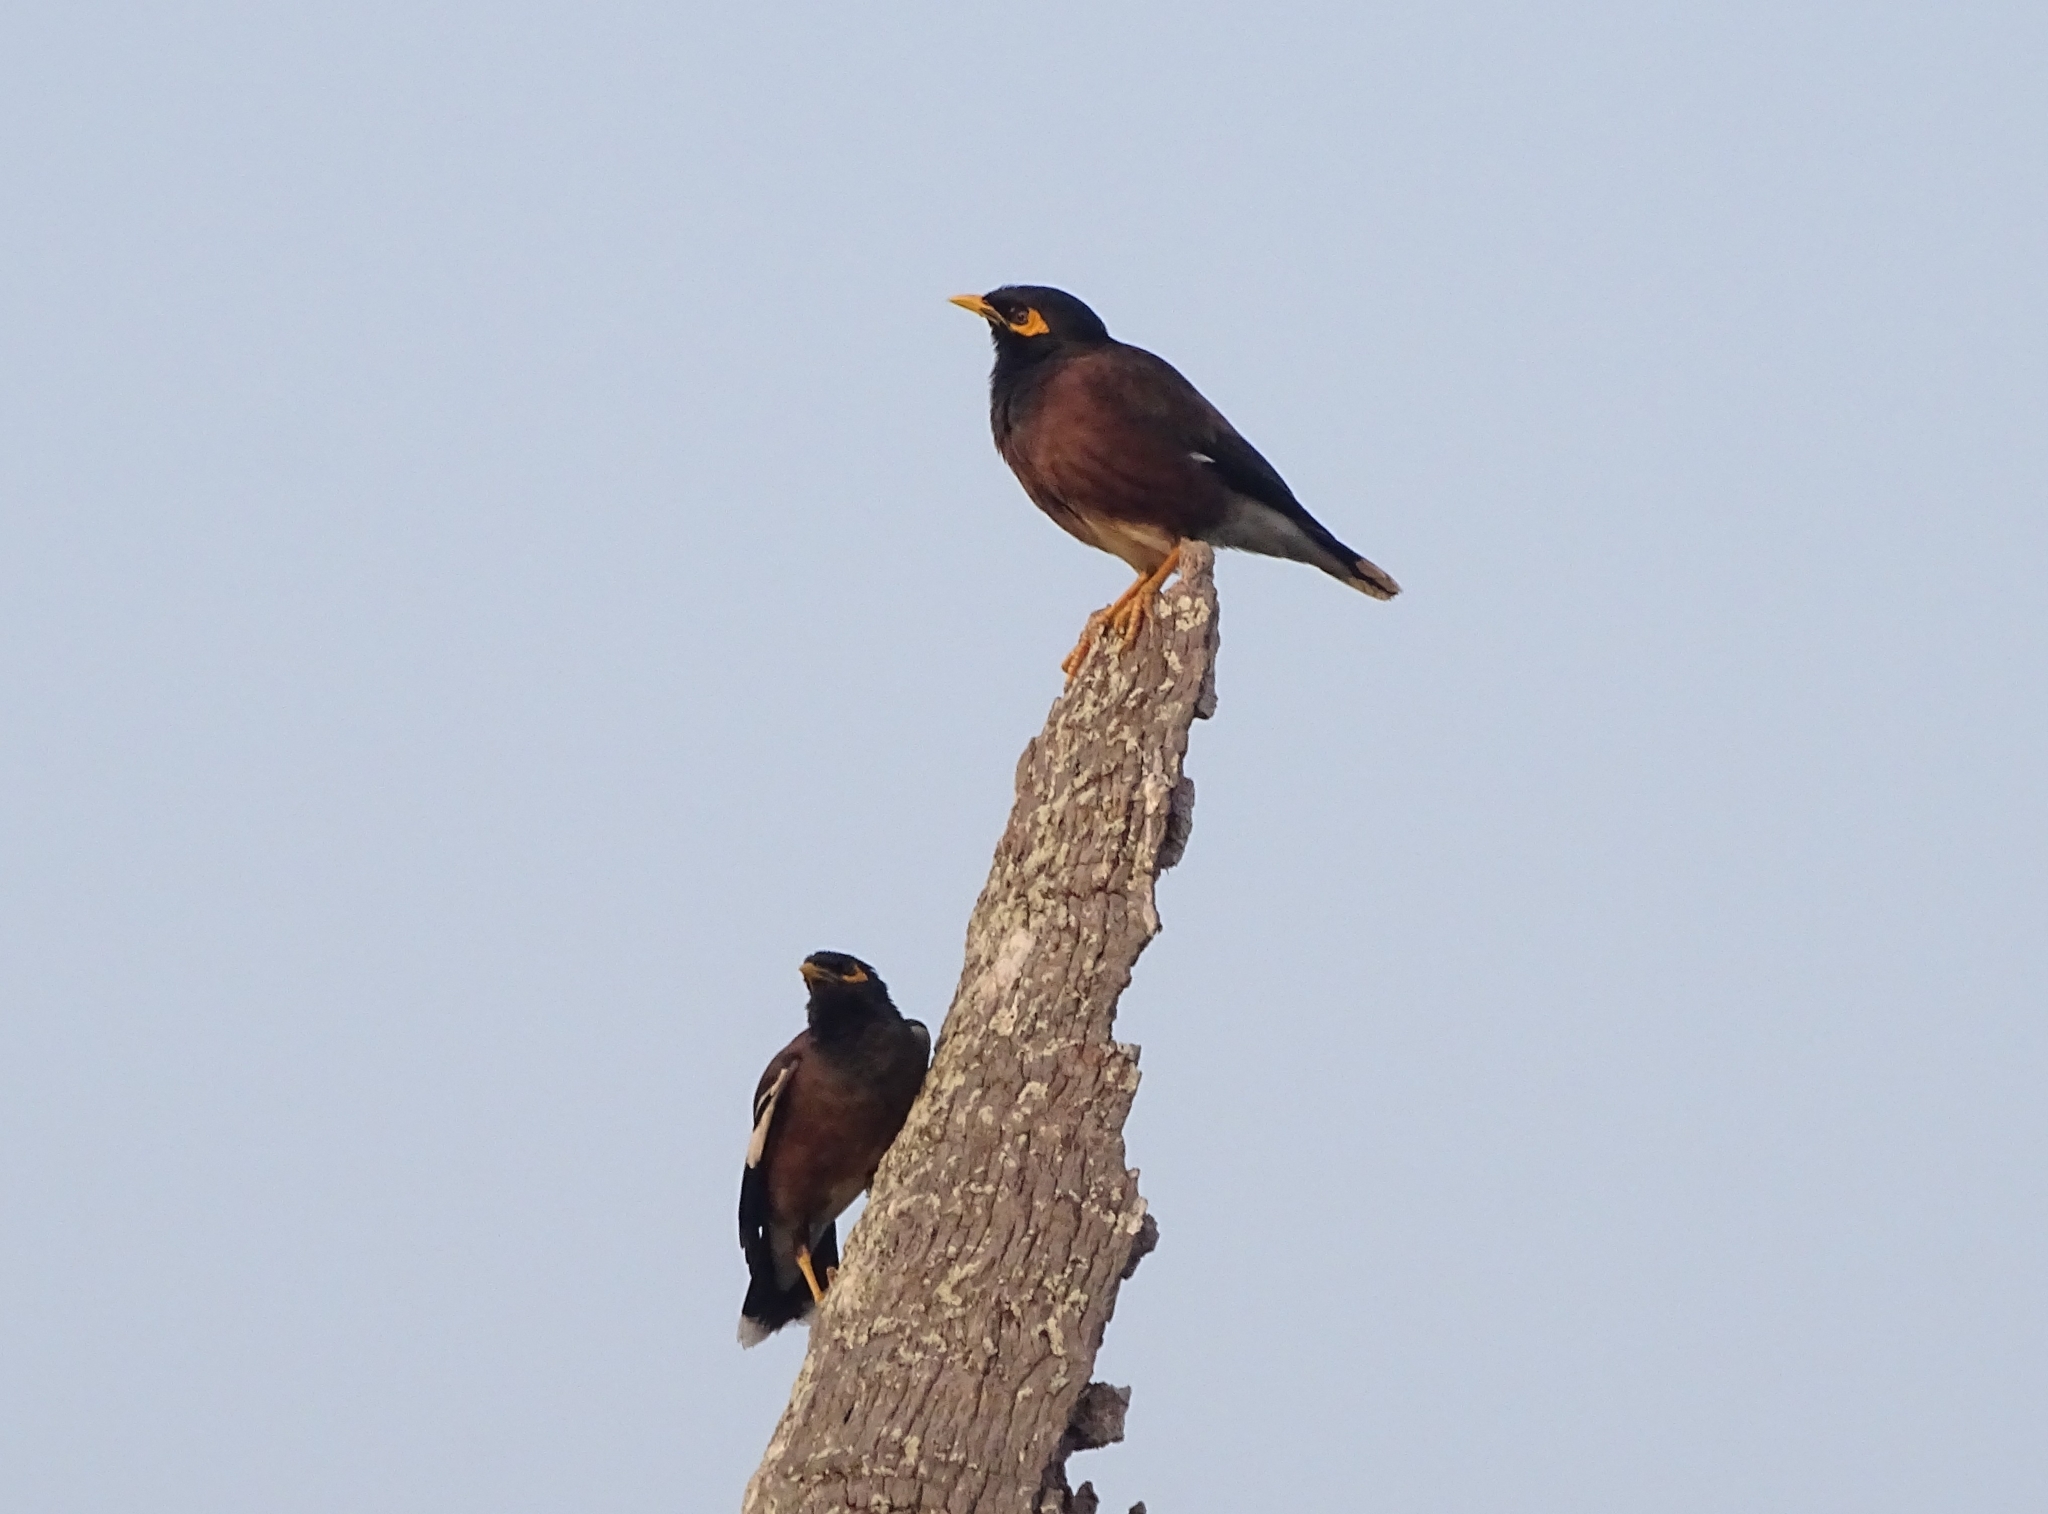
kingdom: Animalia
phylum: Chordata
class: Aves
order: Passeriformes
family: Sturnidae
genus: Acridotheres
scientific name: Acridotheres tristis
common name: Common myna
